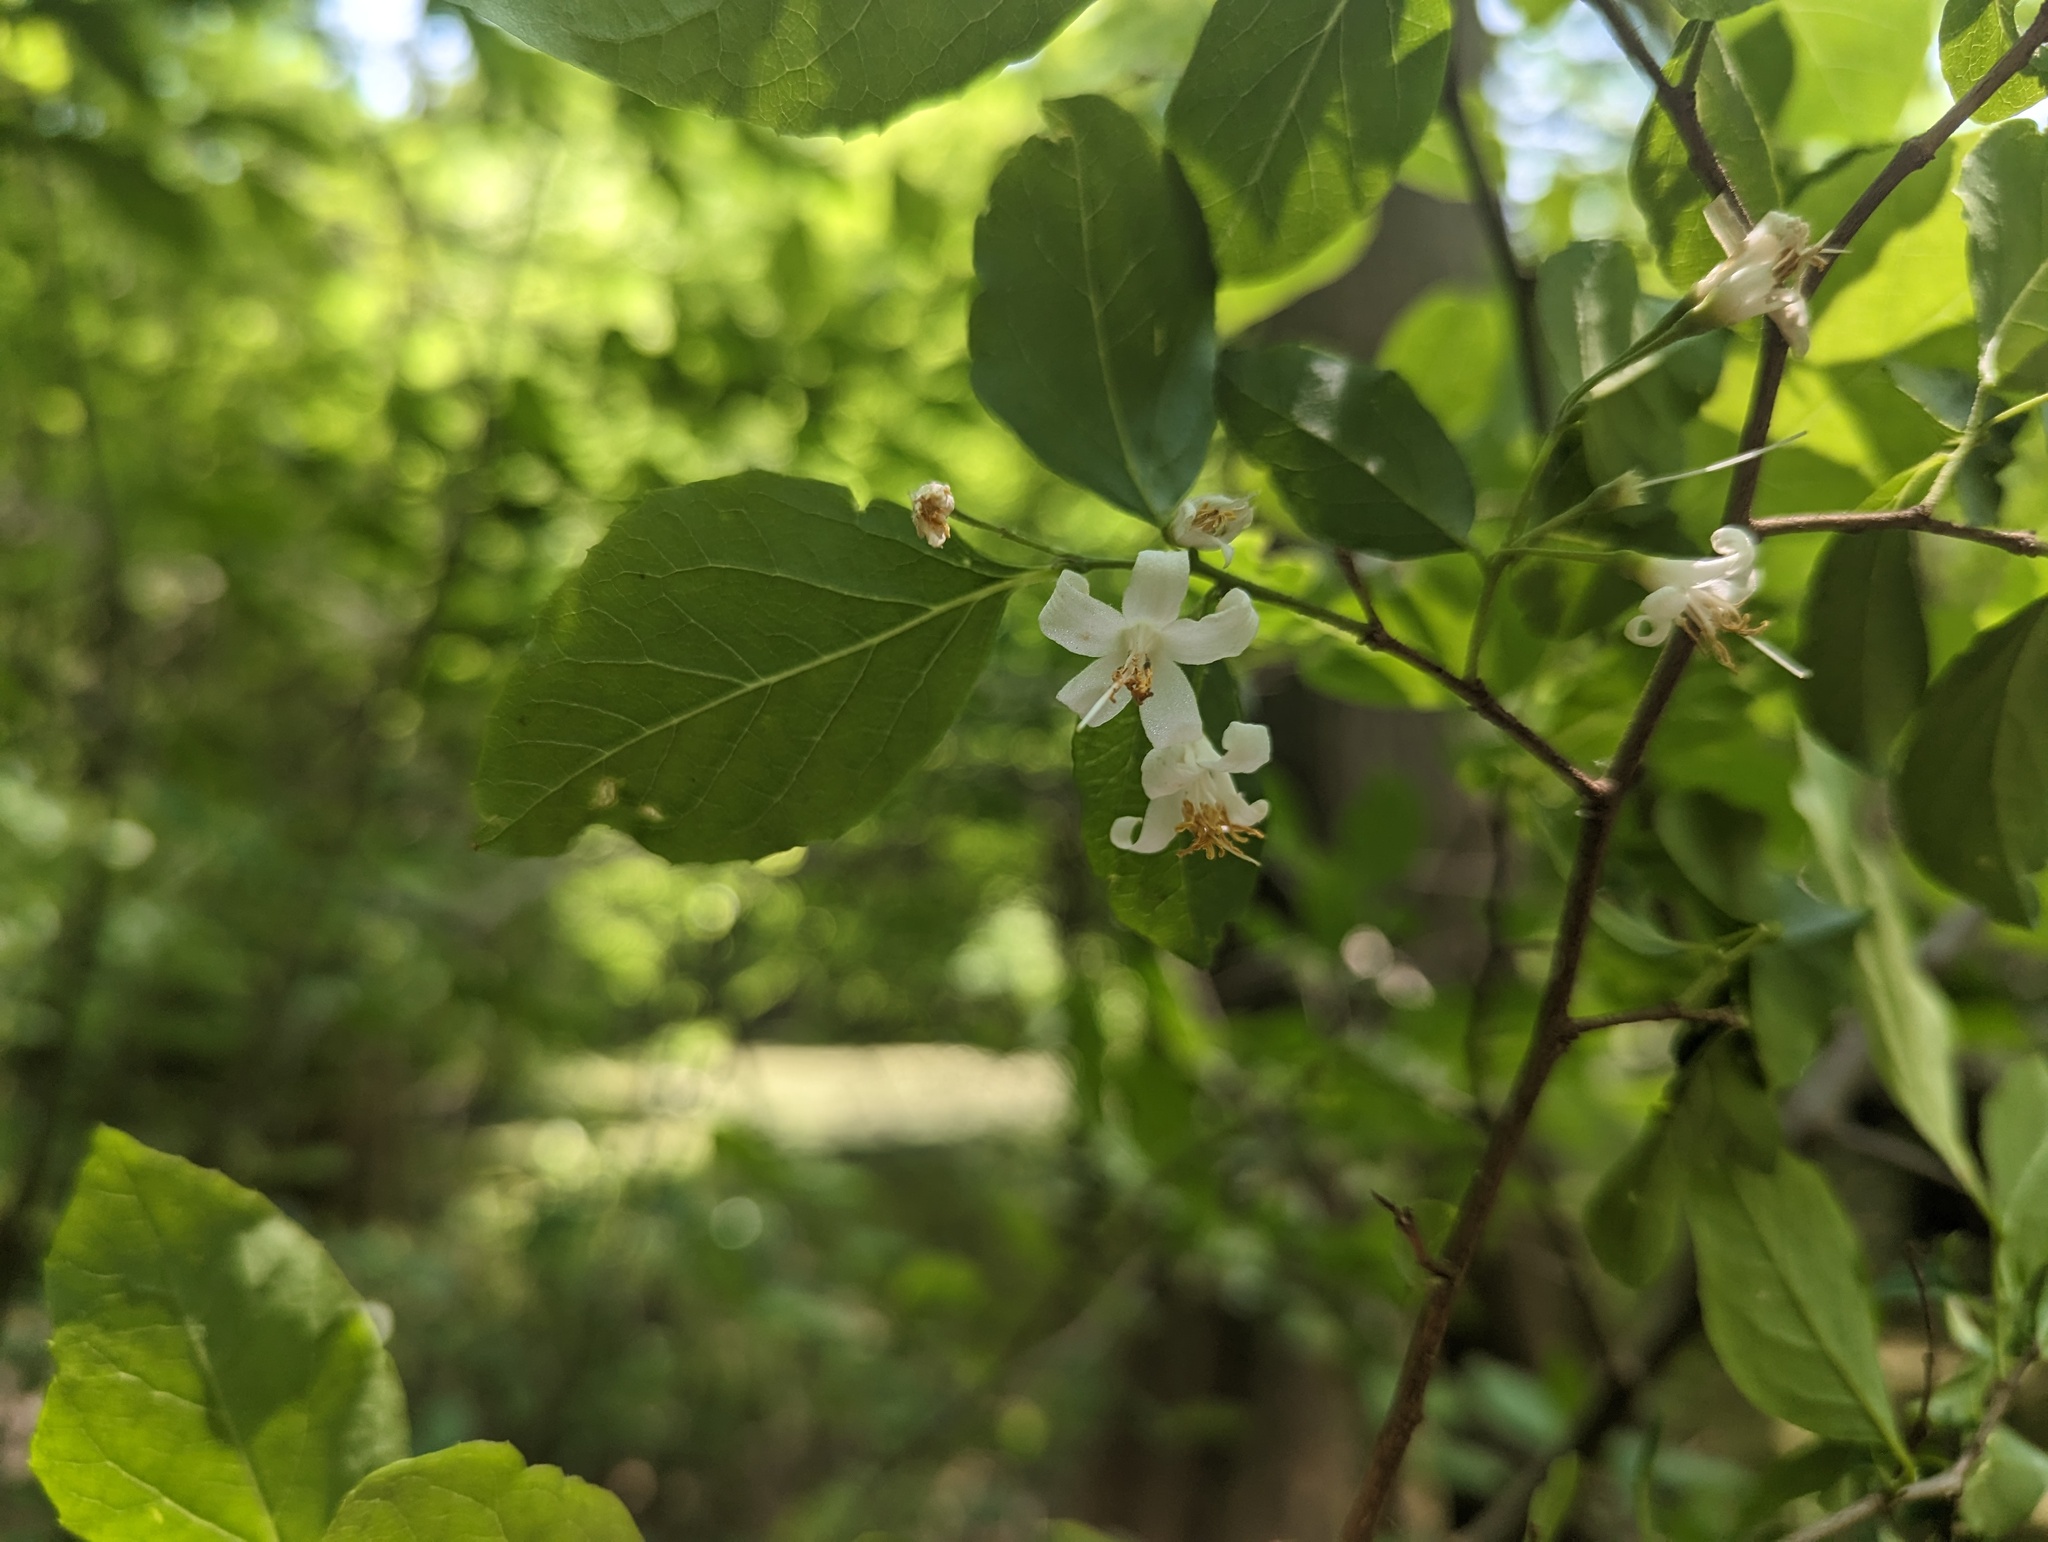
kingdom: Plantae
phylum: Tracheophyta
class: Magnoliopsida
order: Ericales
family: Styracaceae
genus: Styrax
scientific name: Styrax americanus
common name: American snowbell
